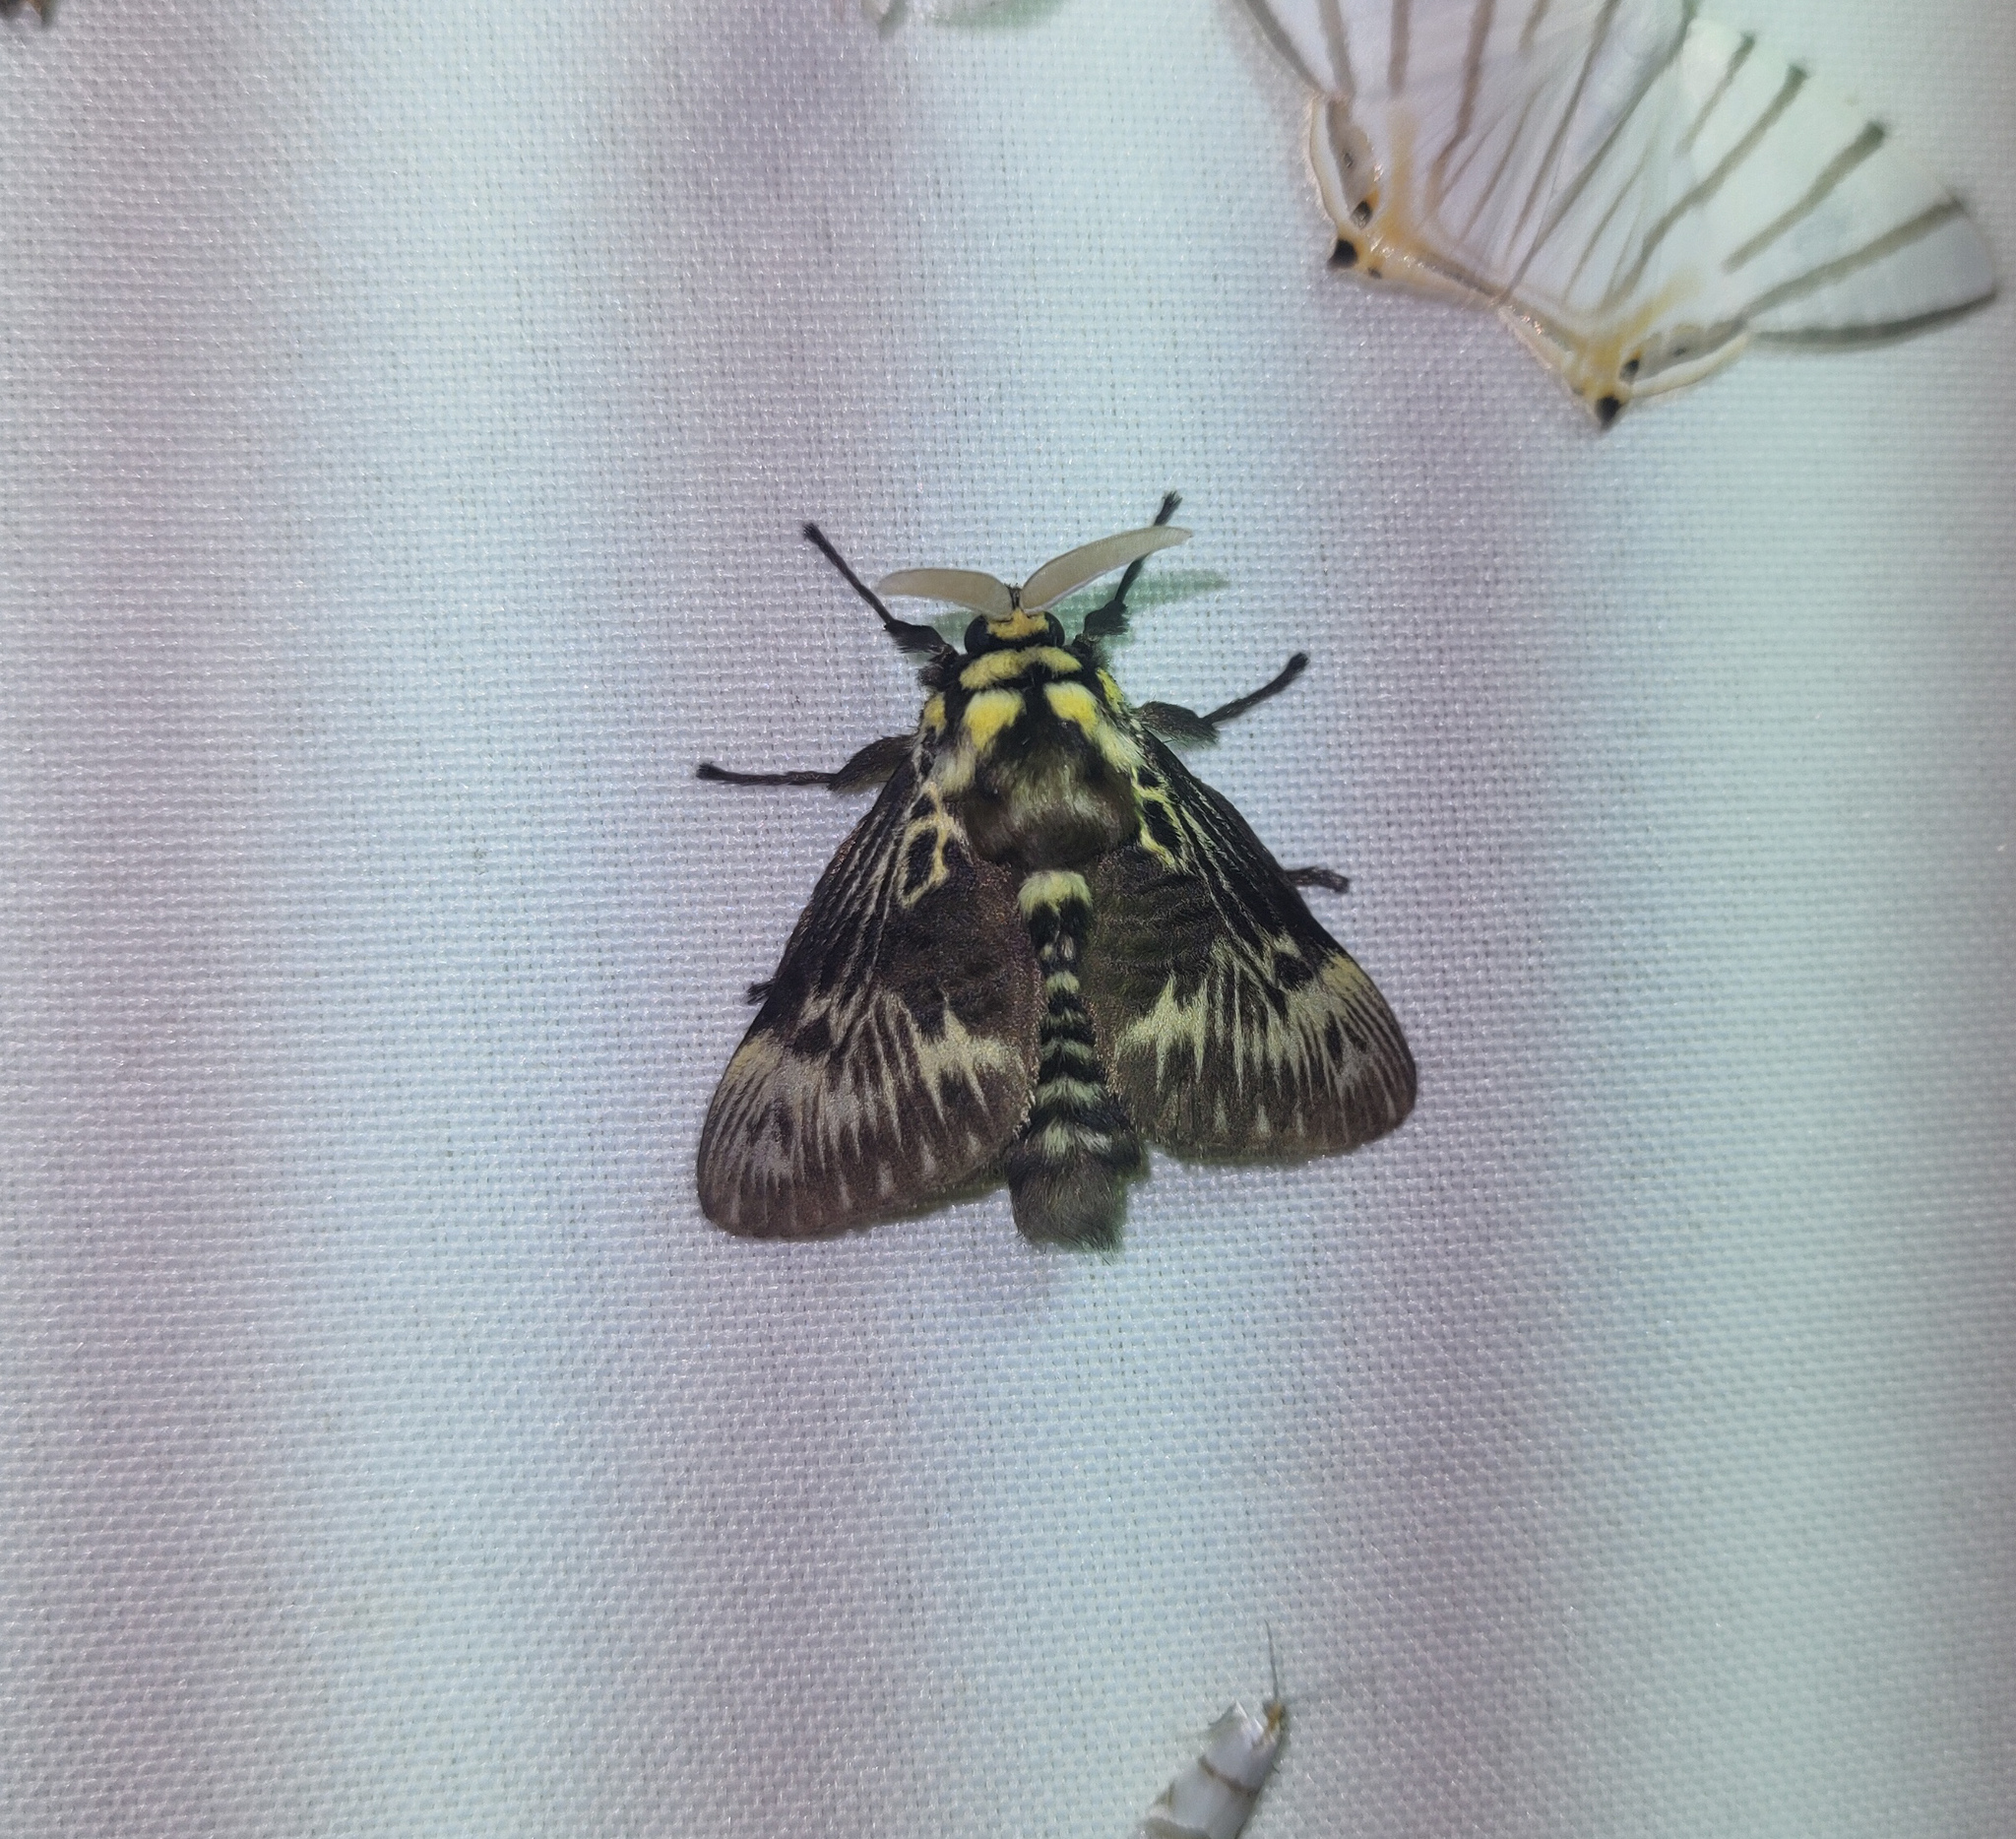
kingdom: Animalia
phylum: Arthropoda
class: Insecta
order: Lepidoptera
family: Megalopygidae
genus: Megalopyge
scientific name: Megalopyge braulio
